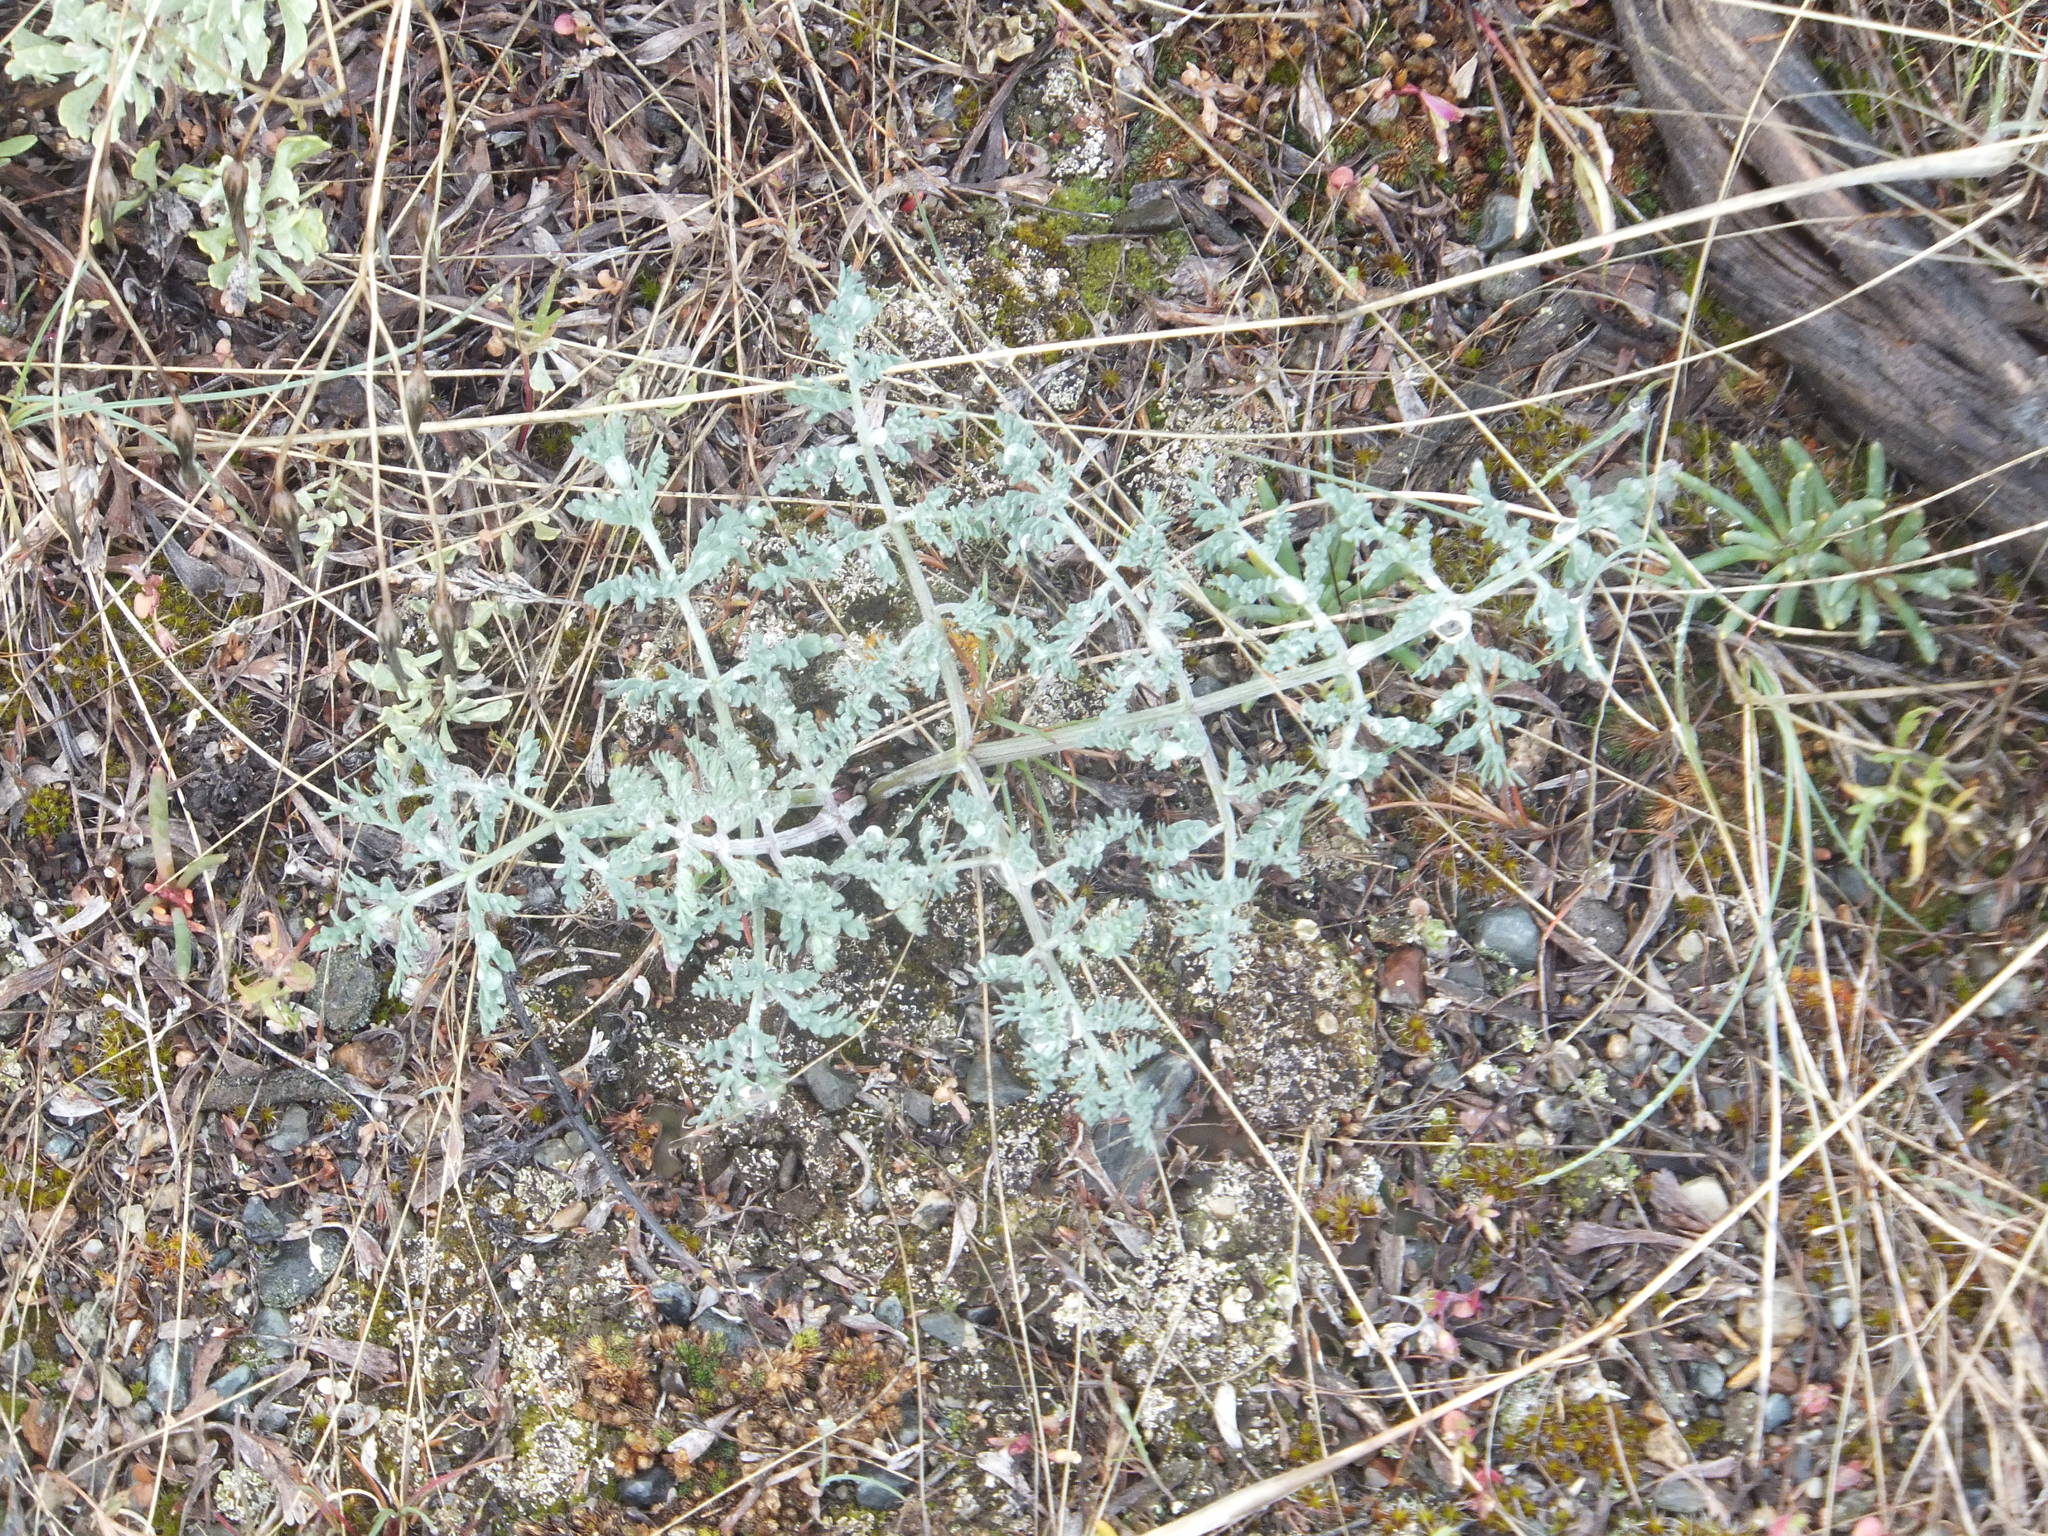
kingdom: Plantae
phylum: Tracheophyta
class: Magnoliopsida
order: Apiales
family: Apiaceae
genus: Lomatium
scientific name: Lomatium macrocarpum
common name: Big-seed biscuitroot
